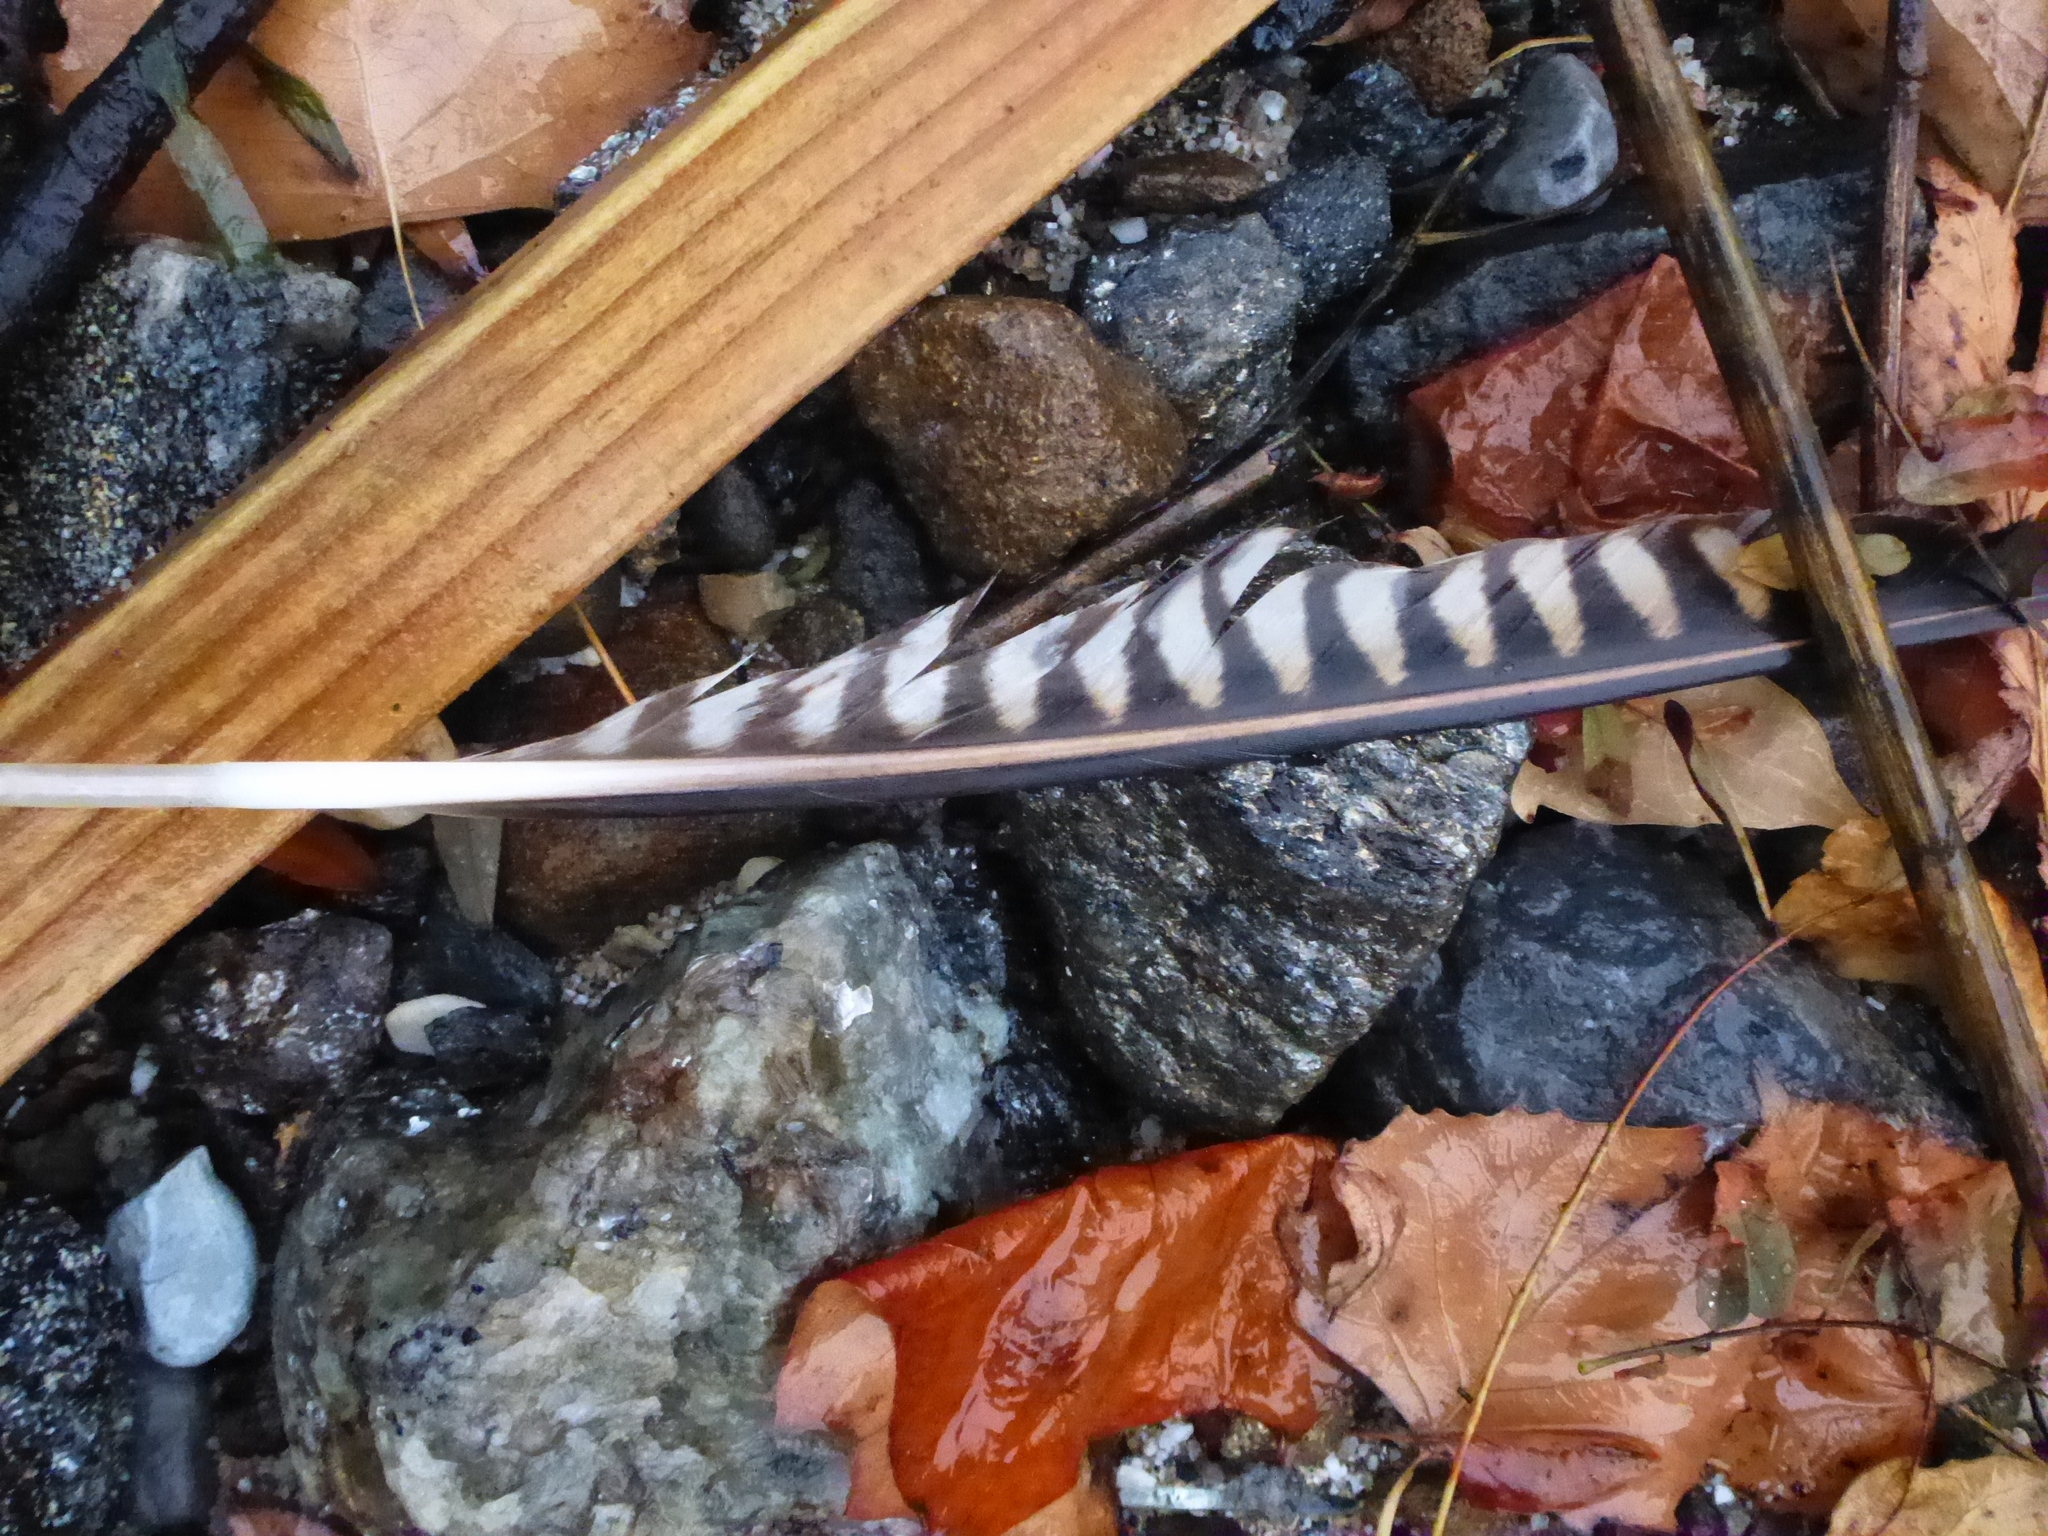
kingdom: Animalia
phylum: Chordata
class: Aves
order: Falconiformes
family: Falconidae
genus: Falco
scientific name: Falco peregrinus
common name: Peregrine falcon
